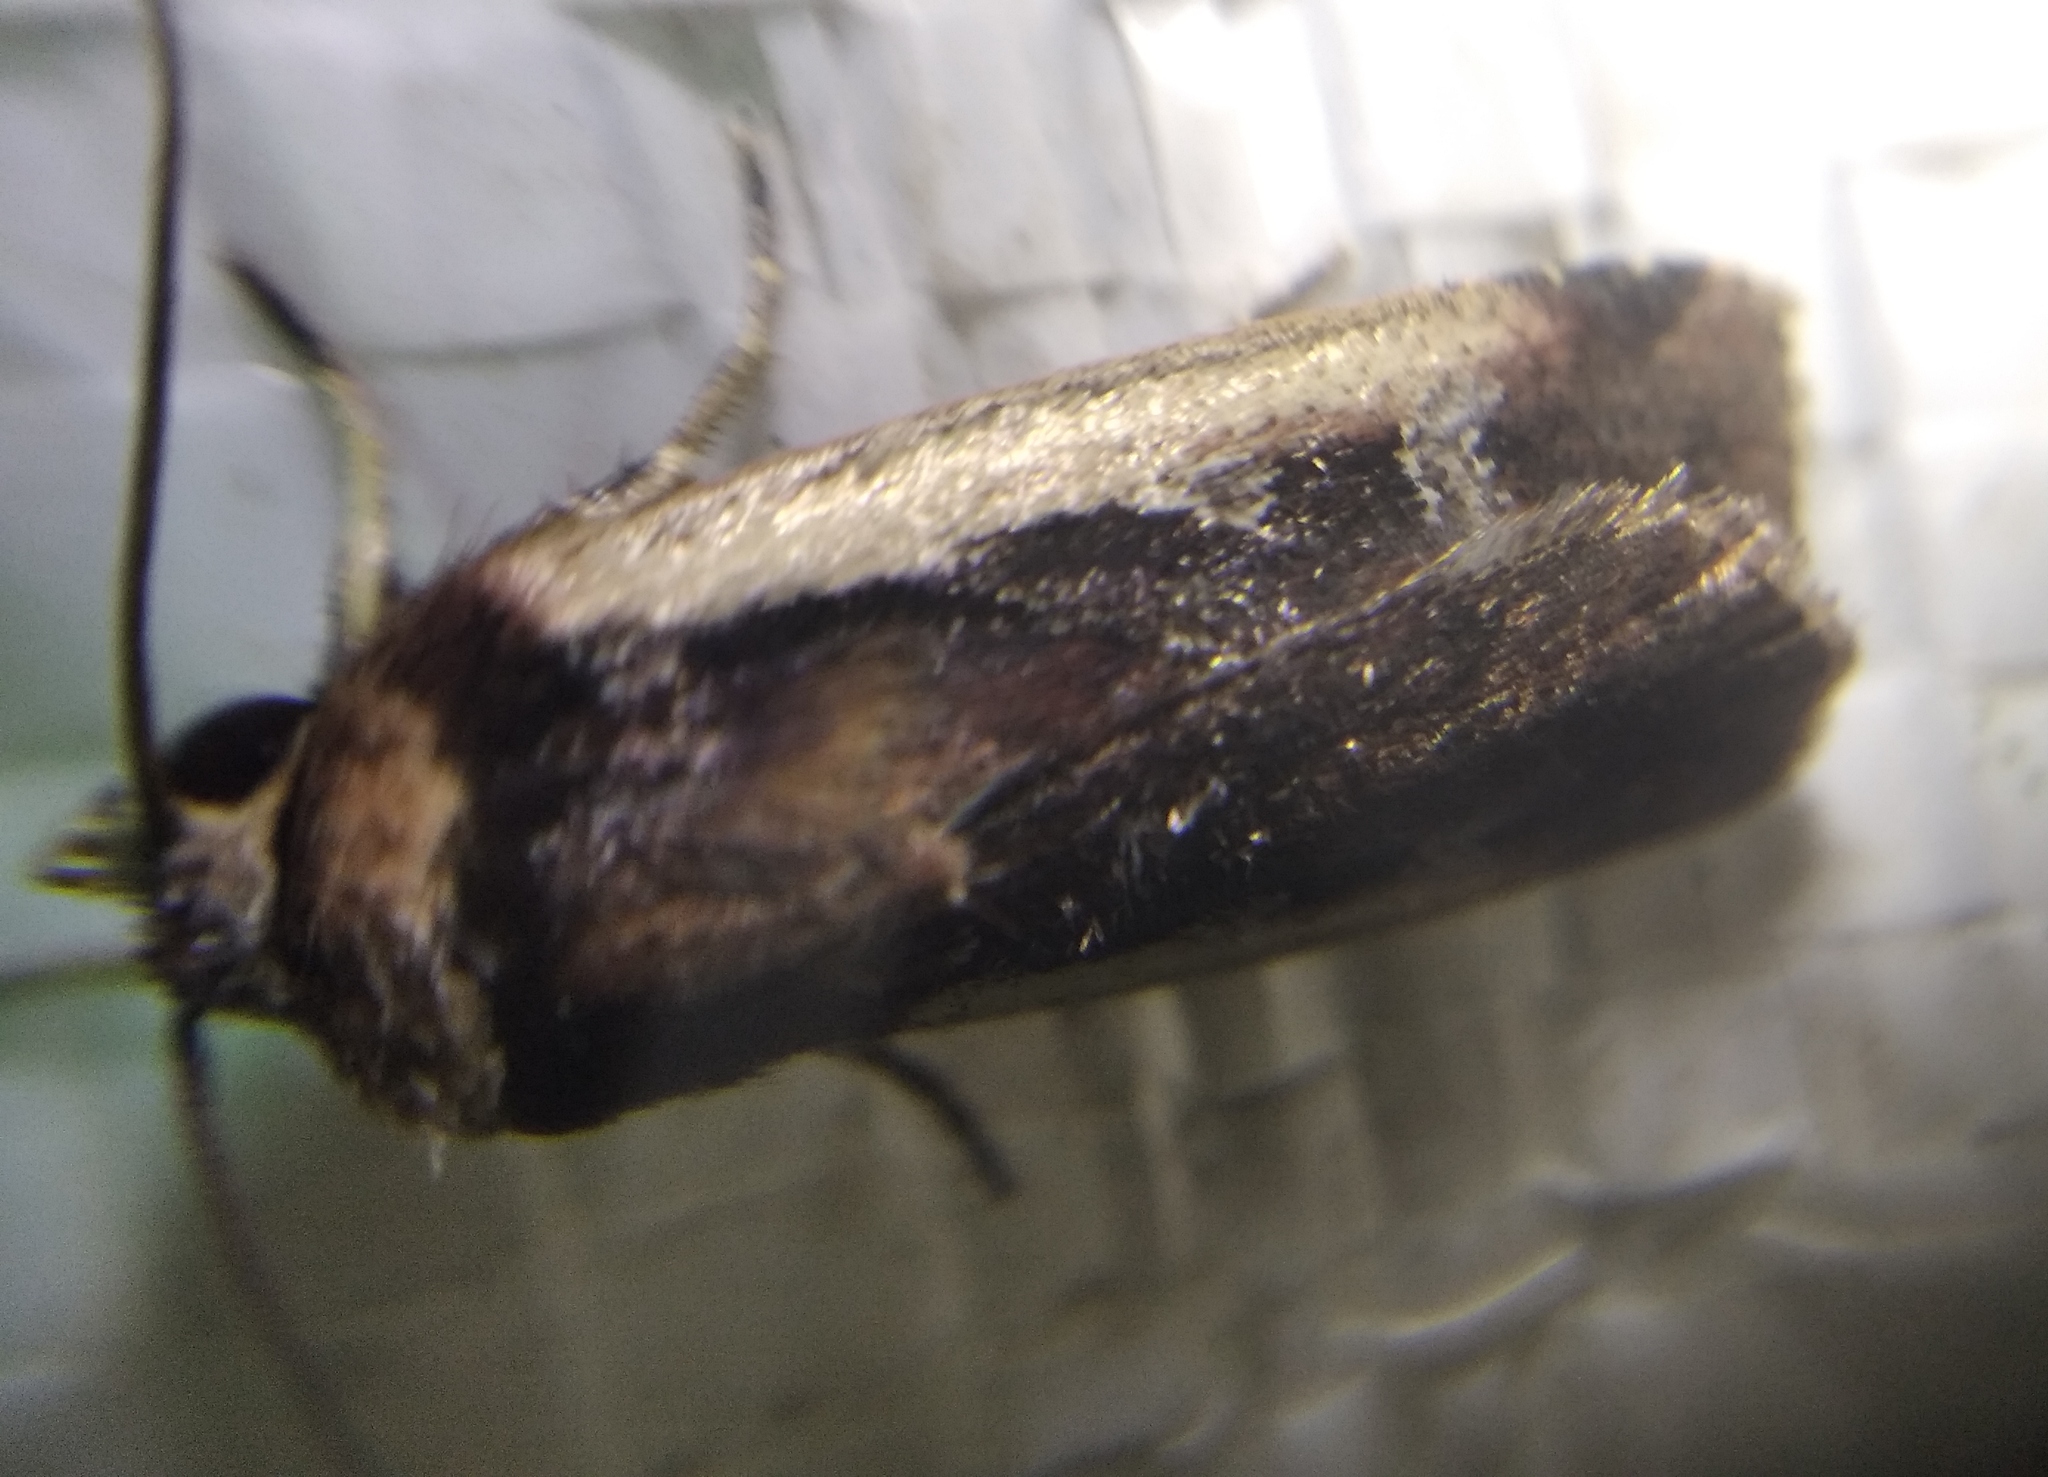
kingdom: Animalia
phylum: Arthropoda
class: Insecta
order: Lepidoptera
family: Noctuidae
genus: Ochropleura
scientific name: Ochropleura plecta
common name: Flame shoulder
